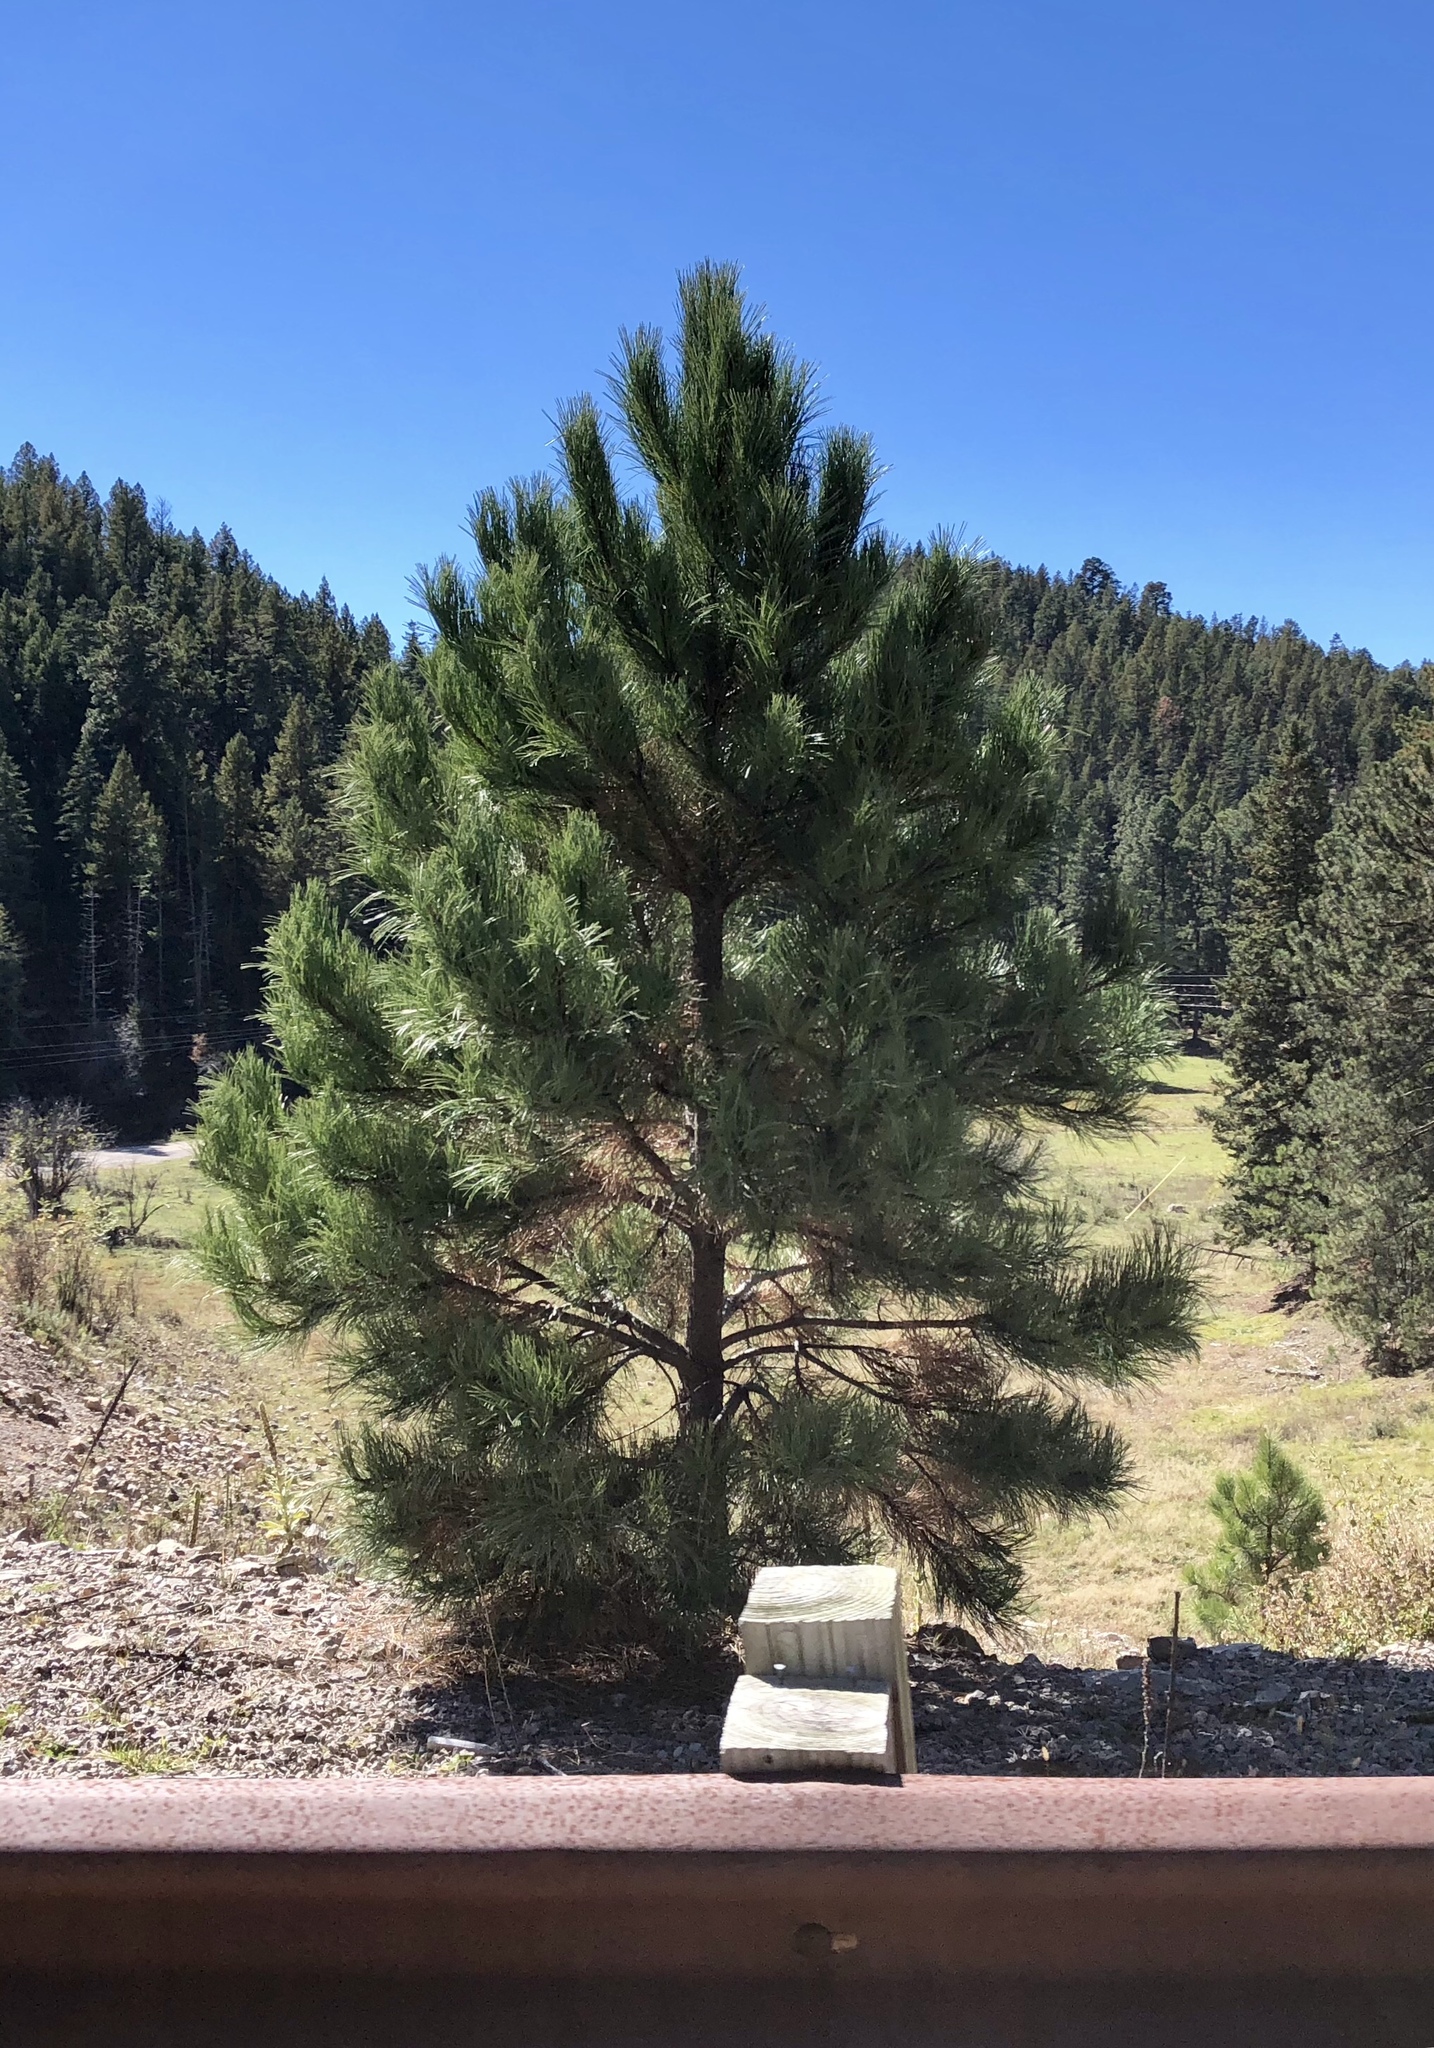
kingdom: Plantae
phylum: Tracheophyta
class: Pinopsida
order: Pinales
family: Pinaceae
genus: Pinus
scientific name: Pinus ponderosa
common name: Western yellow-pine
